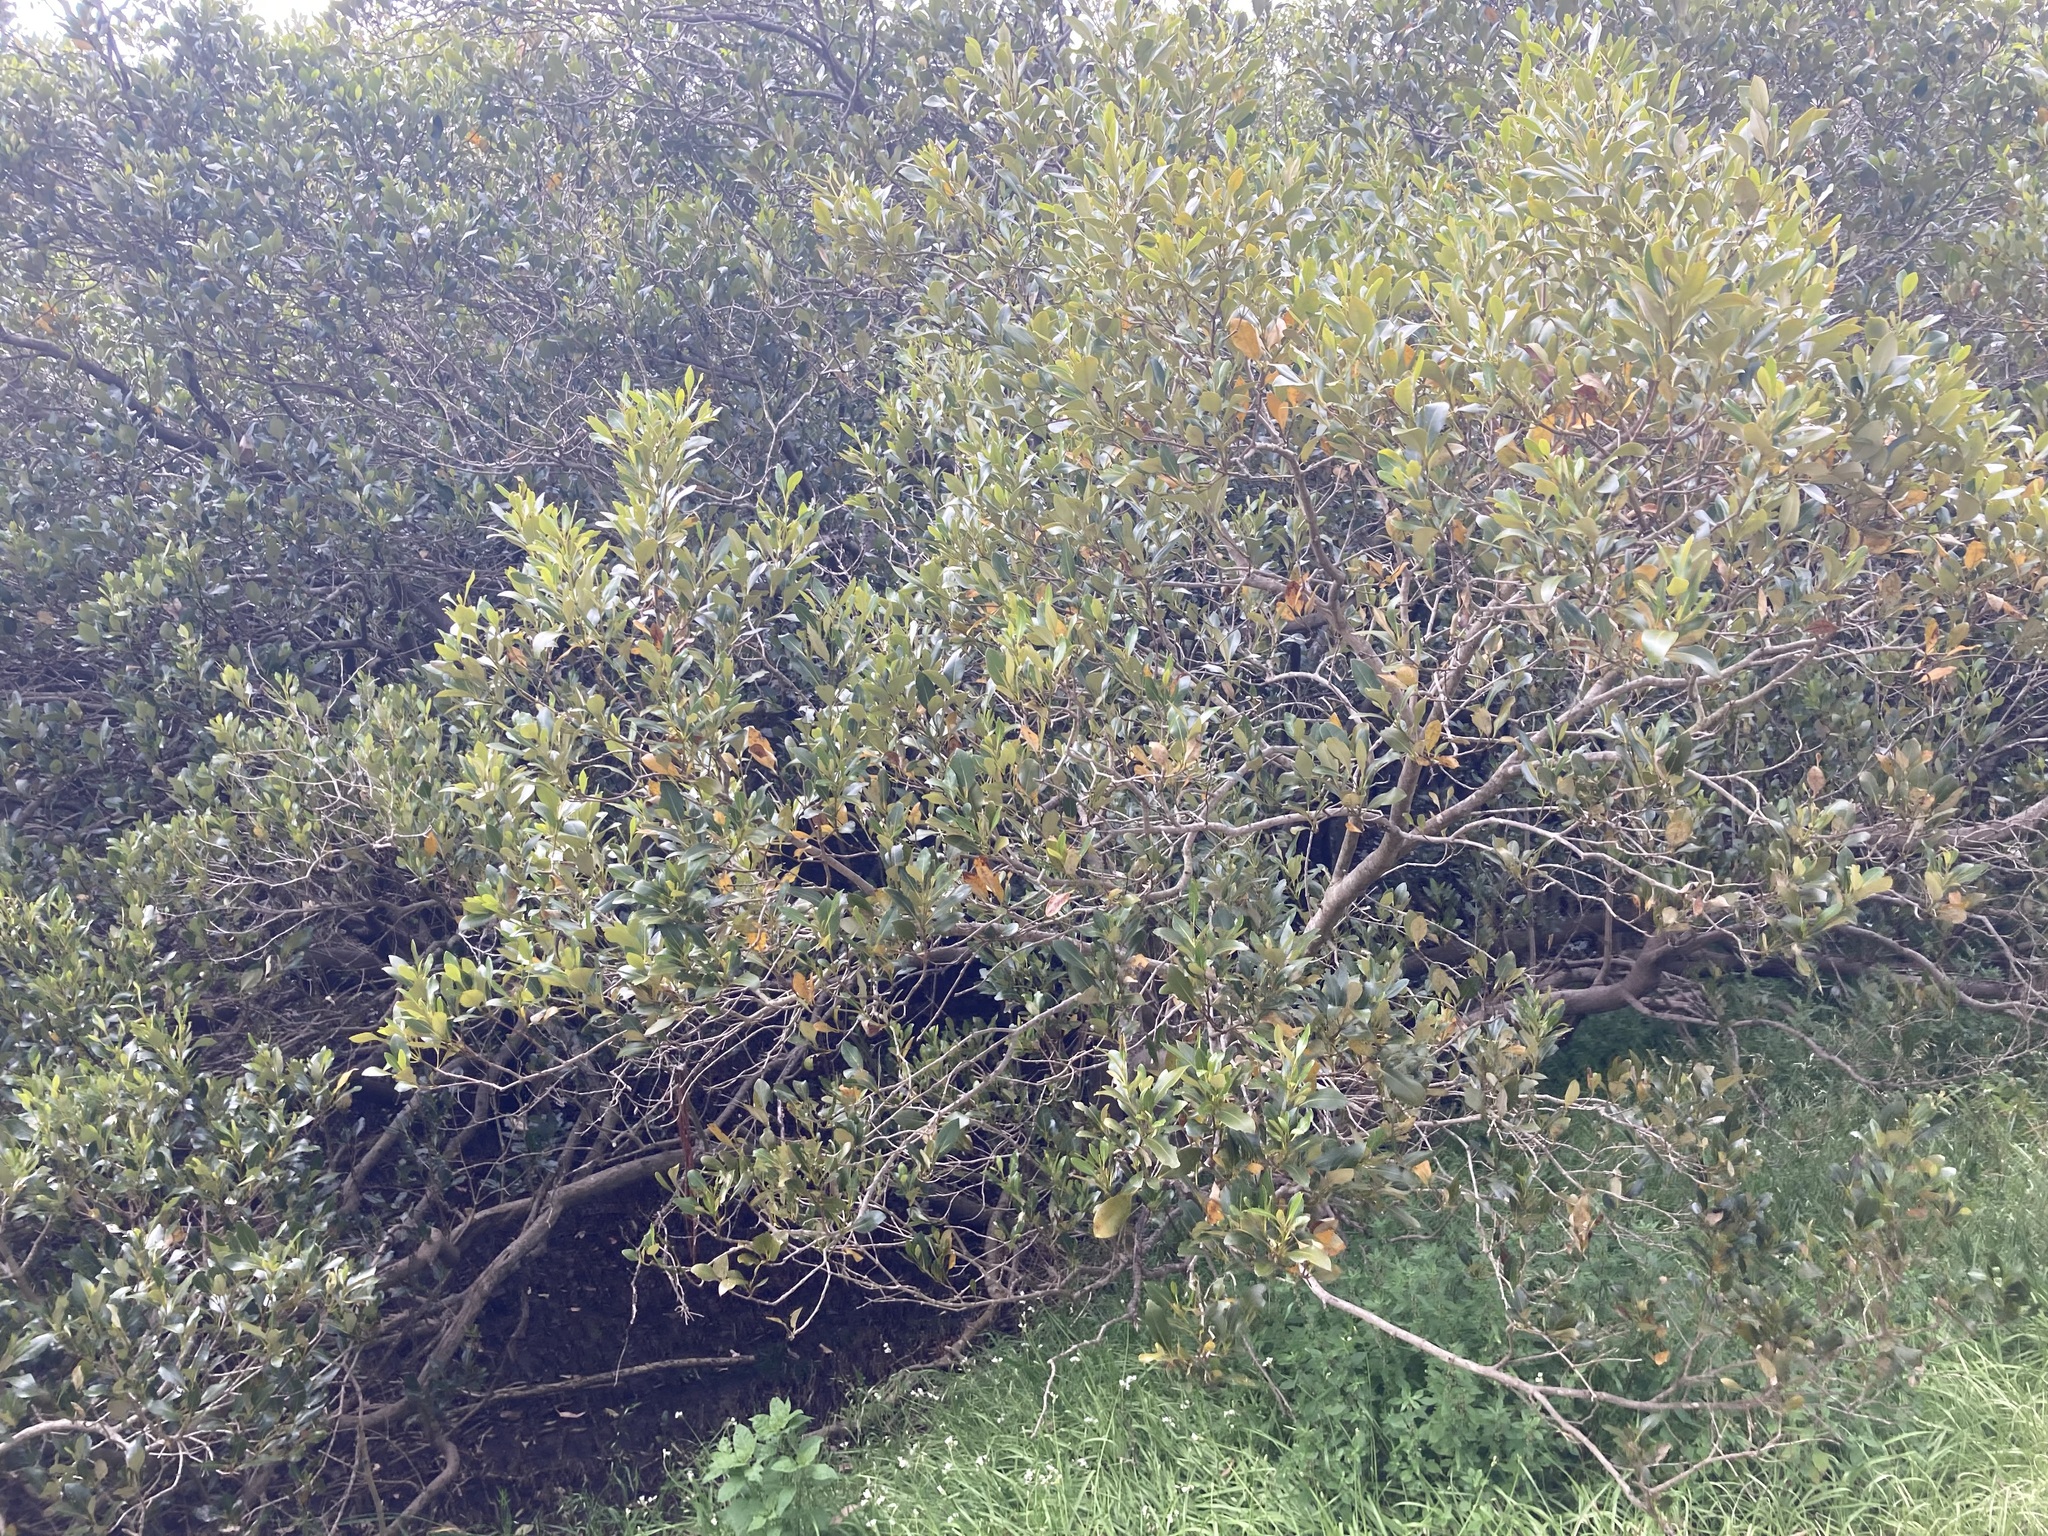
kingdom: Plantae
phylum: Tracheophyta
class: Magnoliopsida
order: Lamiales
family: Acanthaceae
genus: Avicennia
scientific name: Avicennia marina
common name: Gray mangrove
